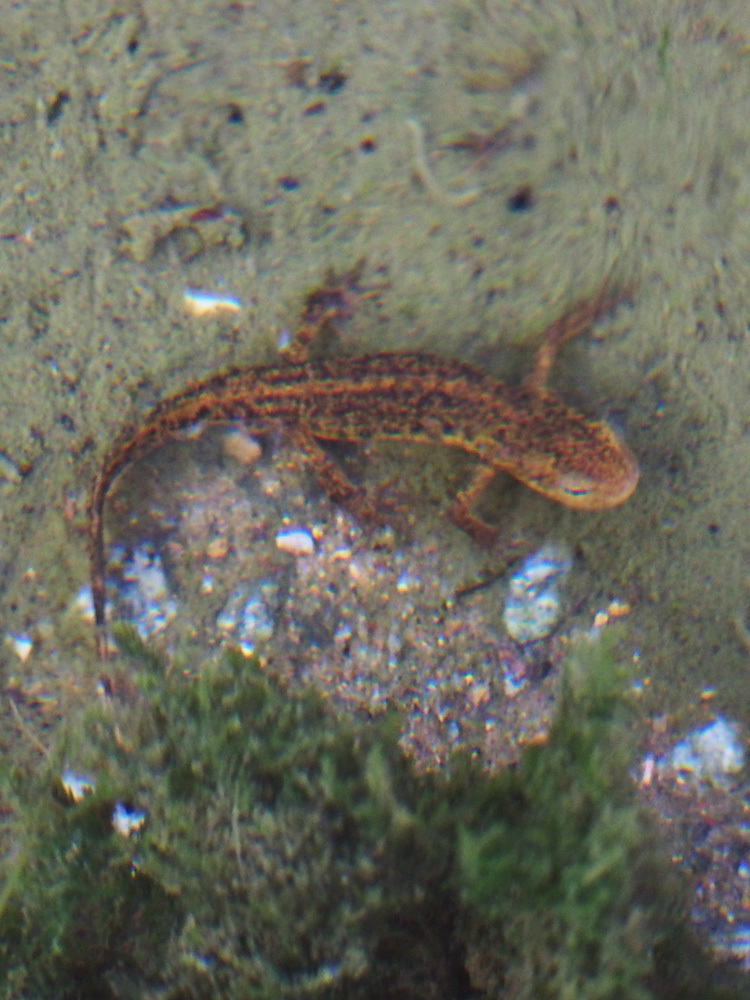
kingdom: Animalia
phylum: Chordata
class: Amphibia
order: Caudata
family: Salamandridae
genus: Lissotriton
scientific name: Lissotriton boscai
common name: Bosca's newt
